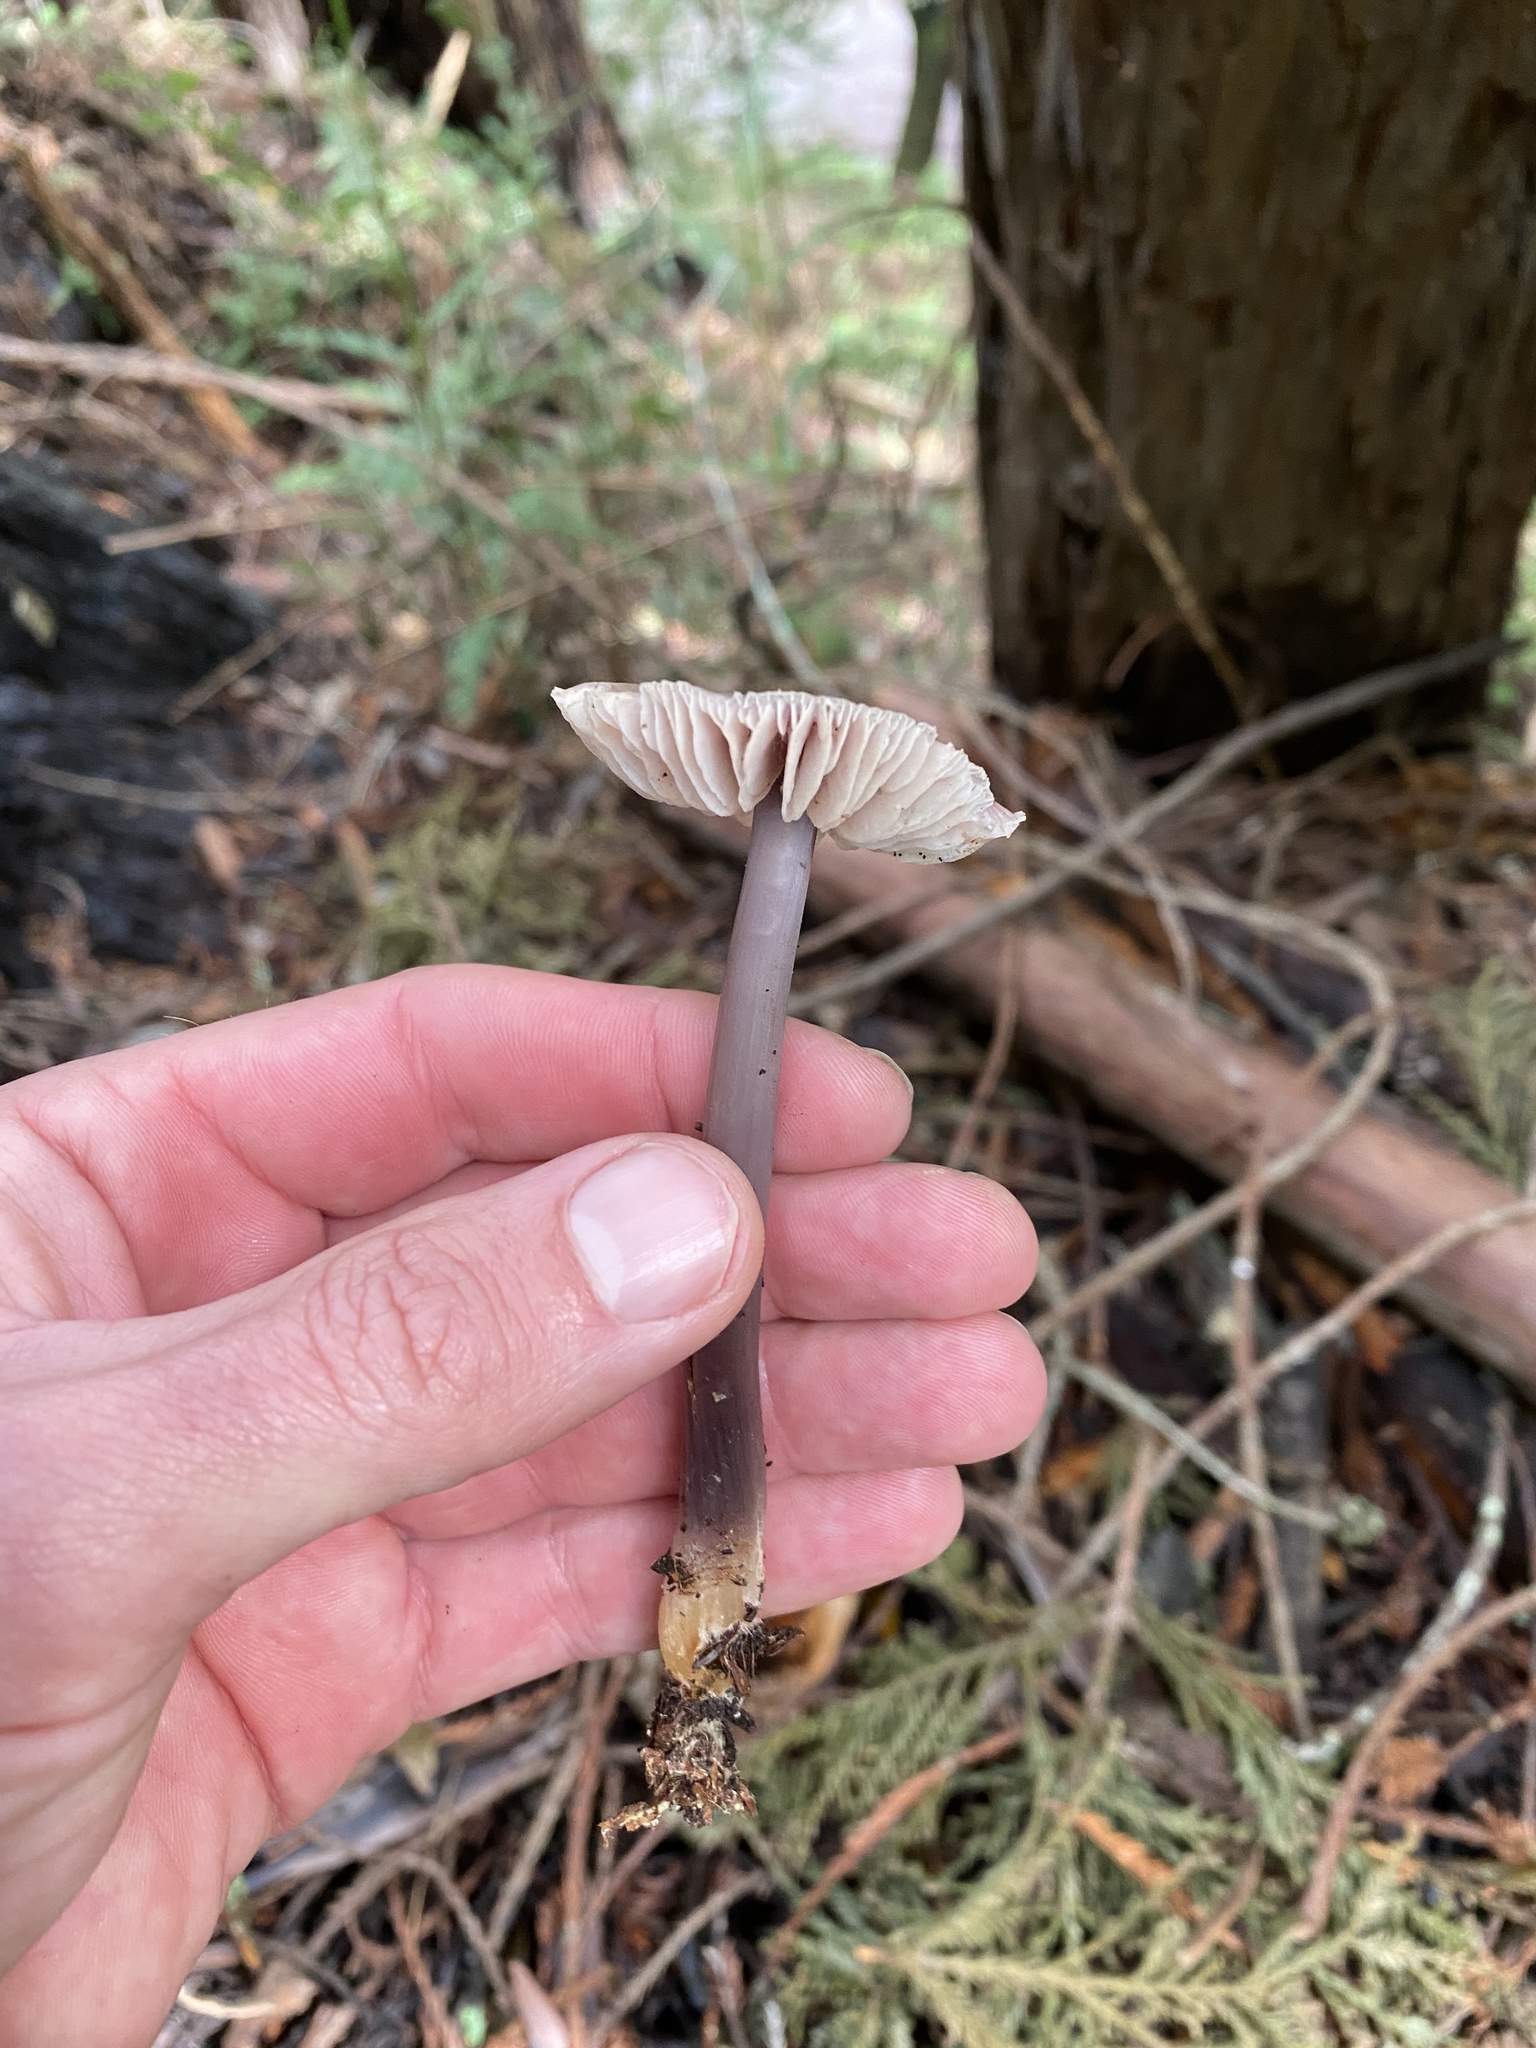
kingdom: Fungi
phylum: Basidiomycota
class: Agaricomycetes
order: Agaricales
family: Mycenaceae
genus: Mycena
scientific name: Mycena pura
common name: Lilac bonnet
